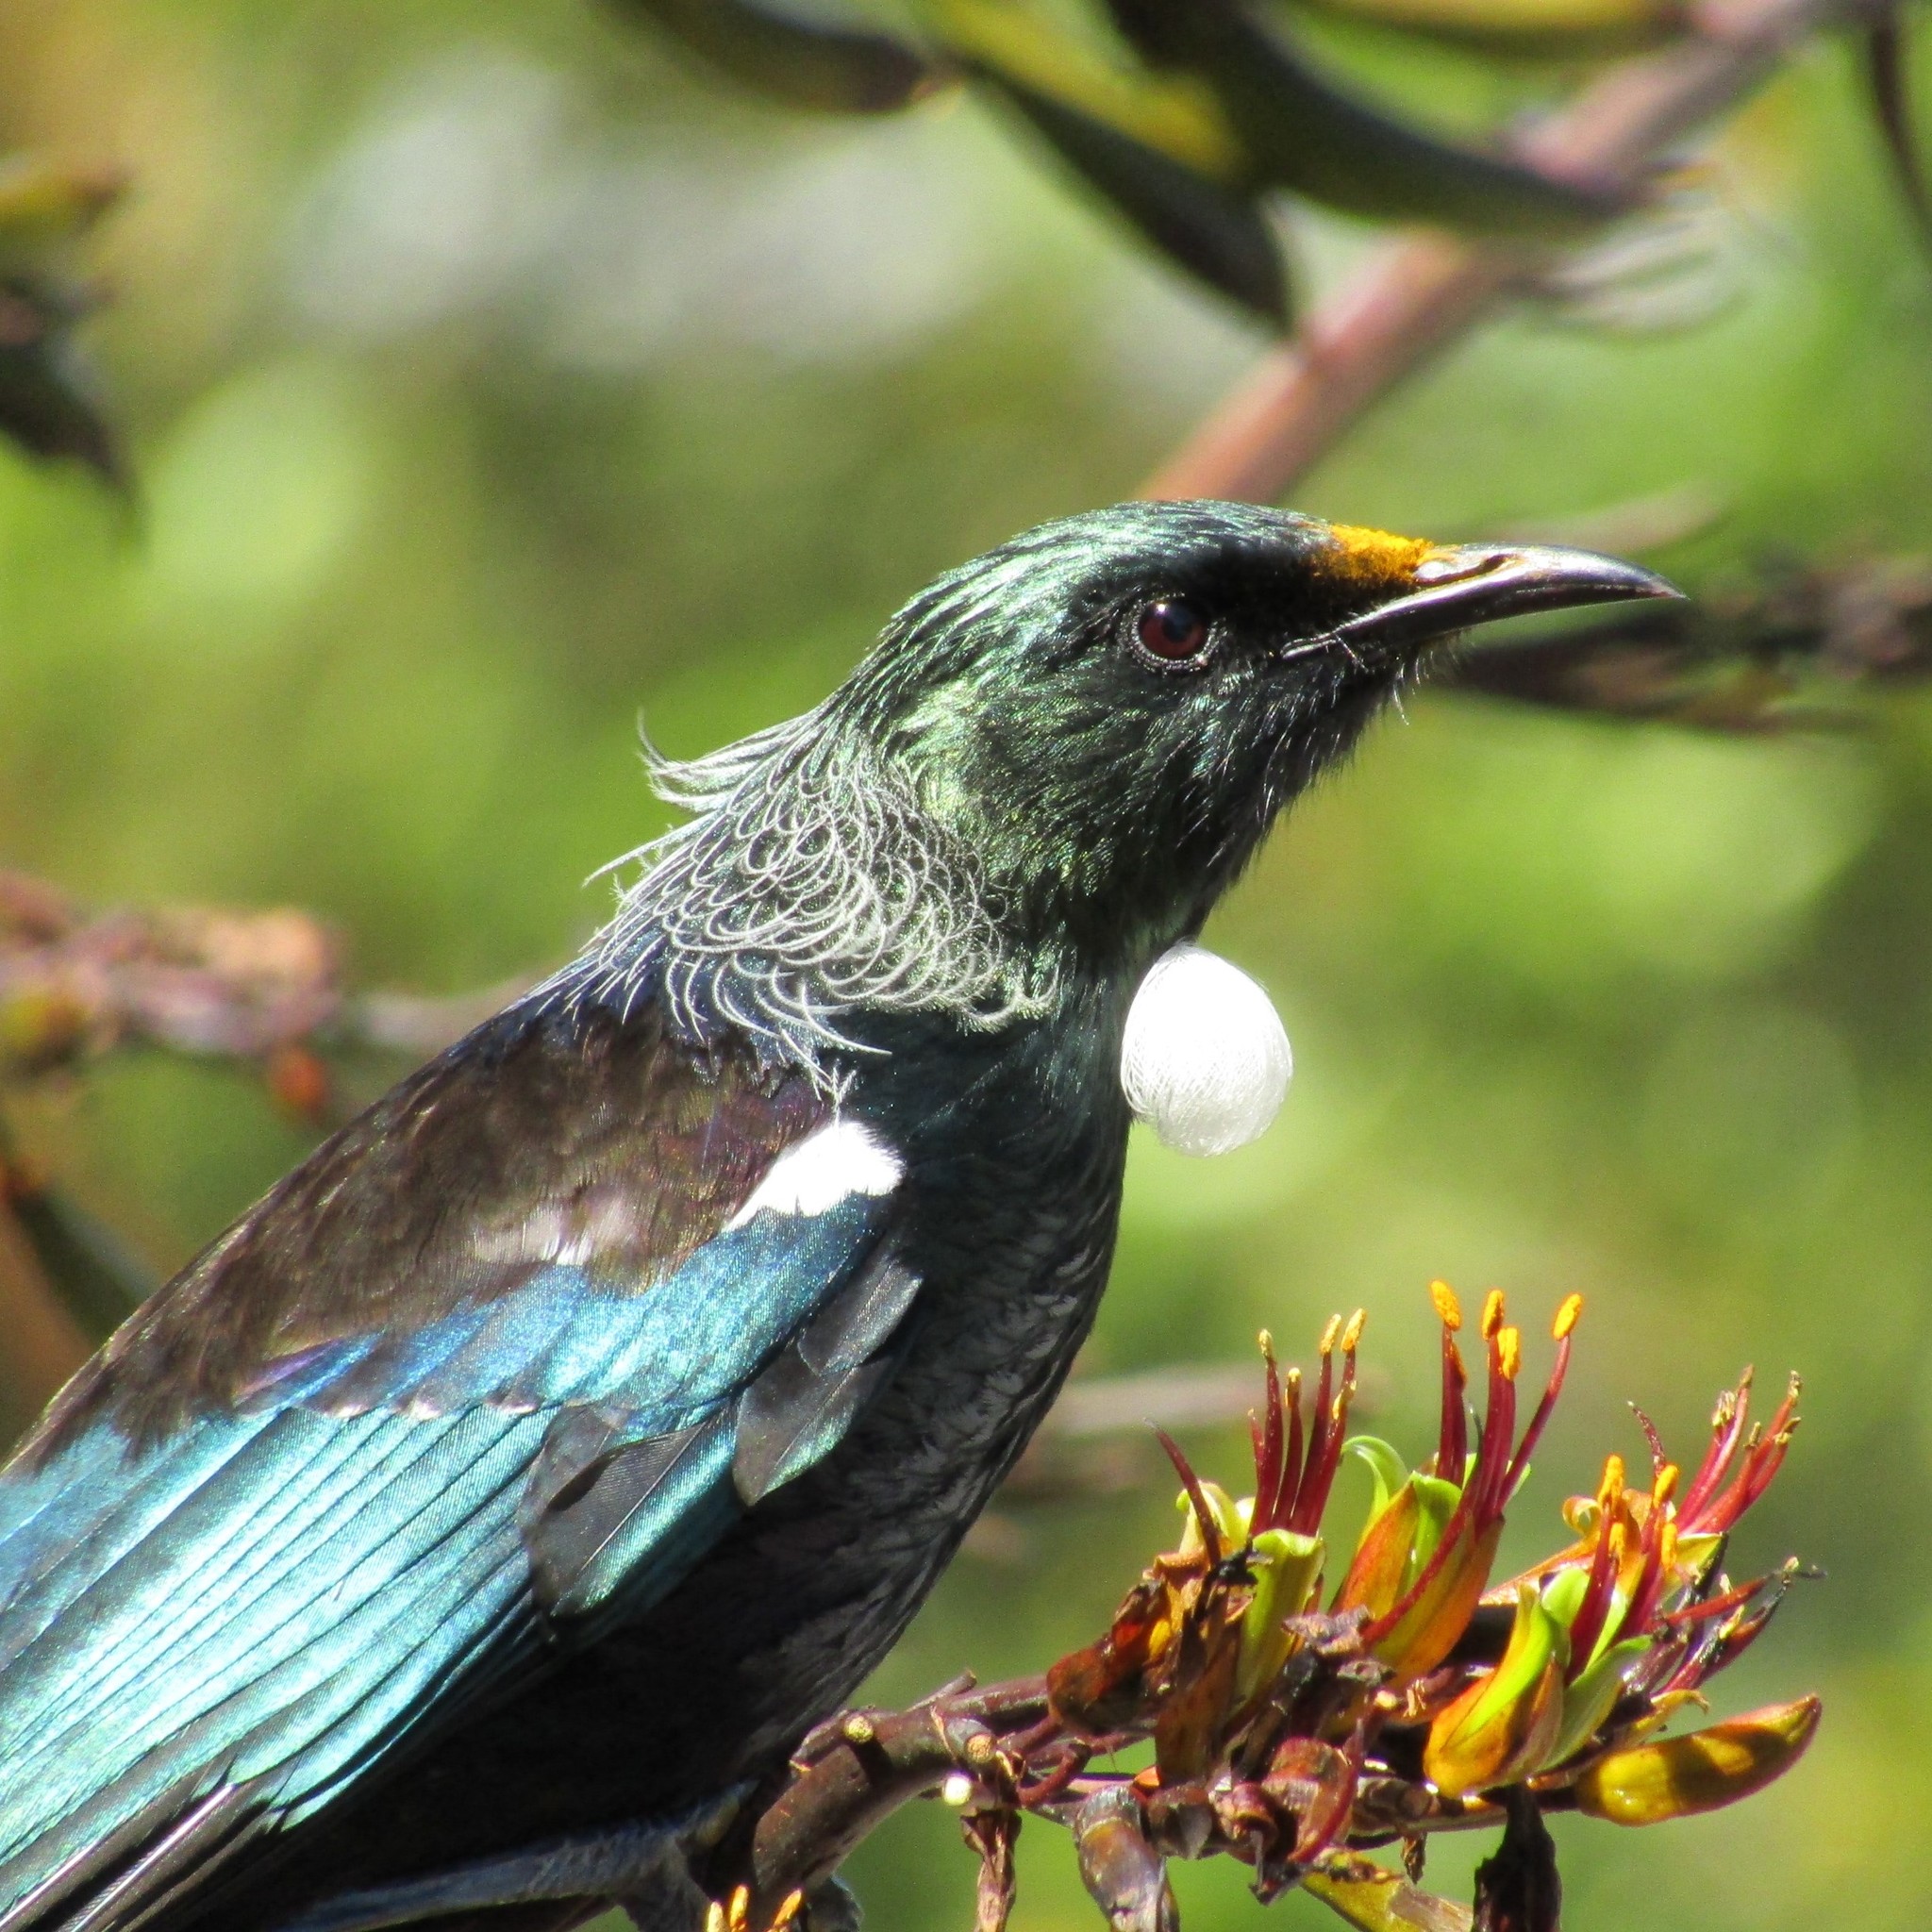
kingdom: Animalia
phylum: Chordata
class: Aves
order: Passeriformes
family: Meliphagidae
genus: Prosthemadera
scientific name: Prosthemadera novaeseelandiae
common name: Tui
